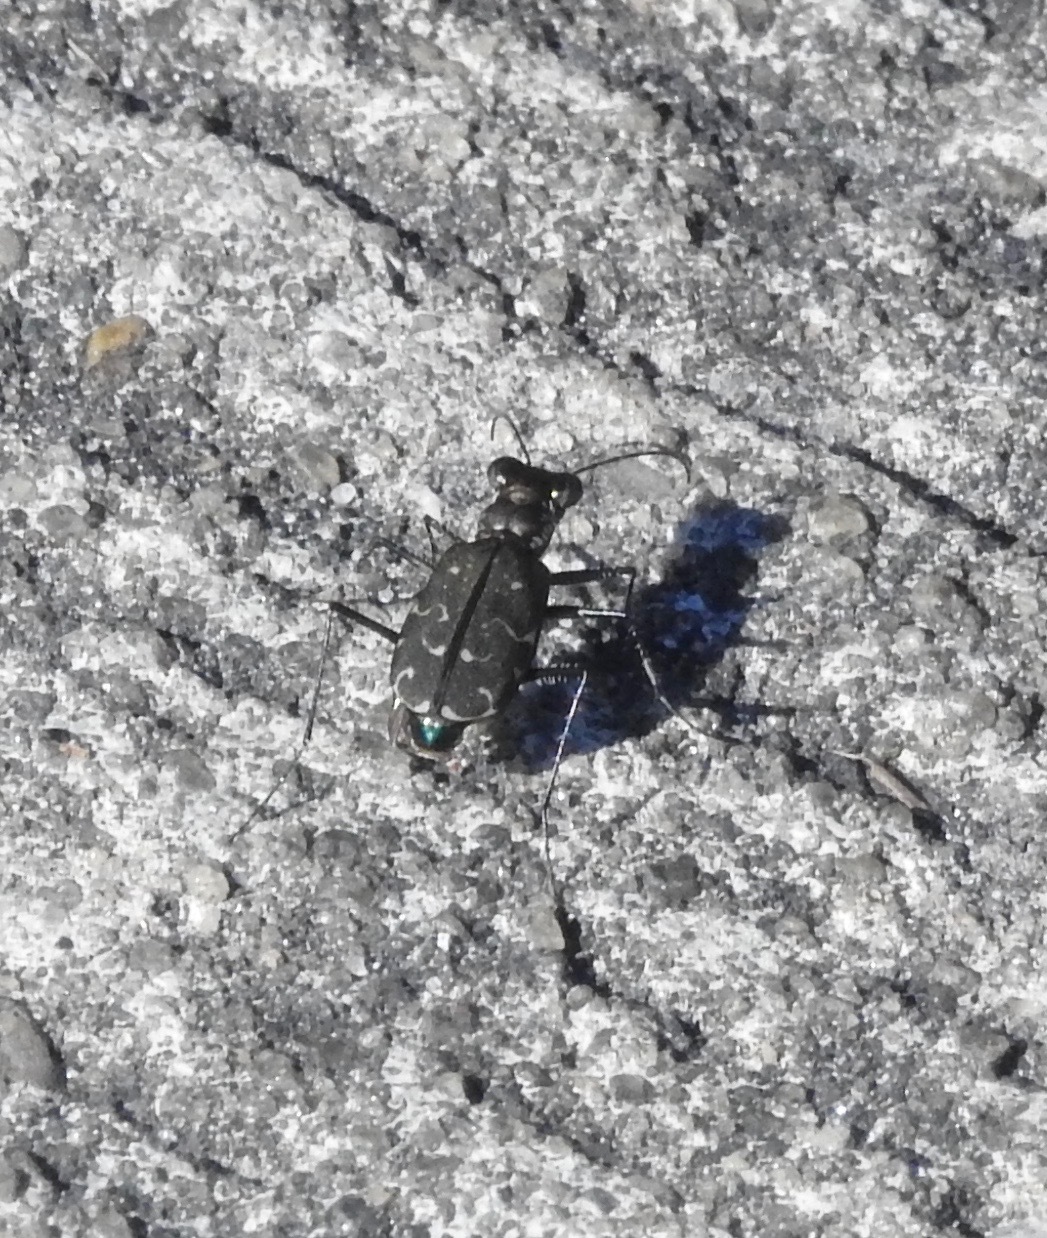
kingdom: Animalia
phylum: Arthropoda
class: Insecta
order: Coleoptera
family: Carabidae
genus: Cicindela
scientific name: Cicindela trifasciata
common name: Mudflat tiger beetle
